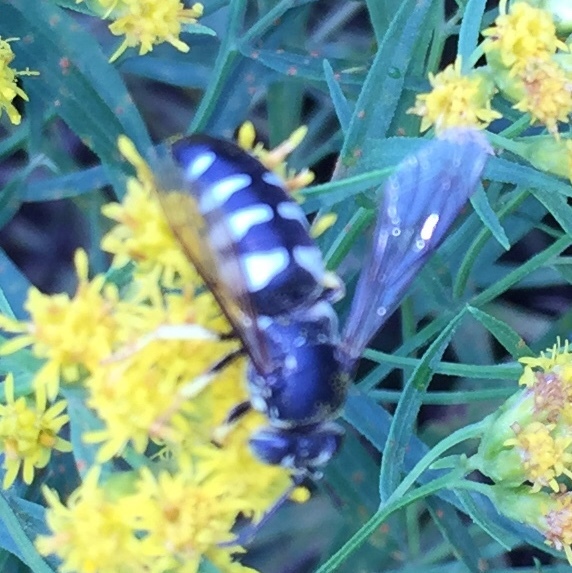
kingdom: Animalia
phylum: Arthropoda
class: Insecta
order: Hymenoptera
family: Crabronidae
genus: Bicyrtes
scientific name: Bicyrtes quadrifasciatus
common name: Four-banded stink bug hunter wasp
